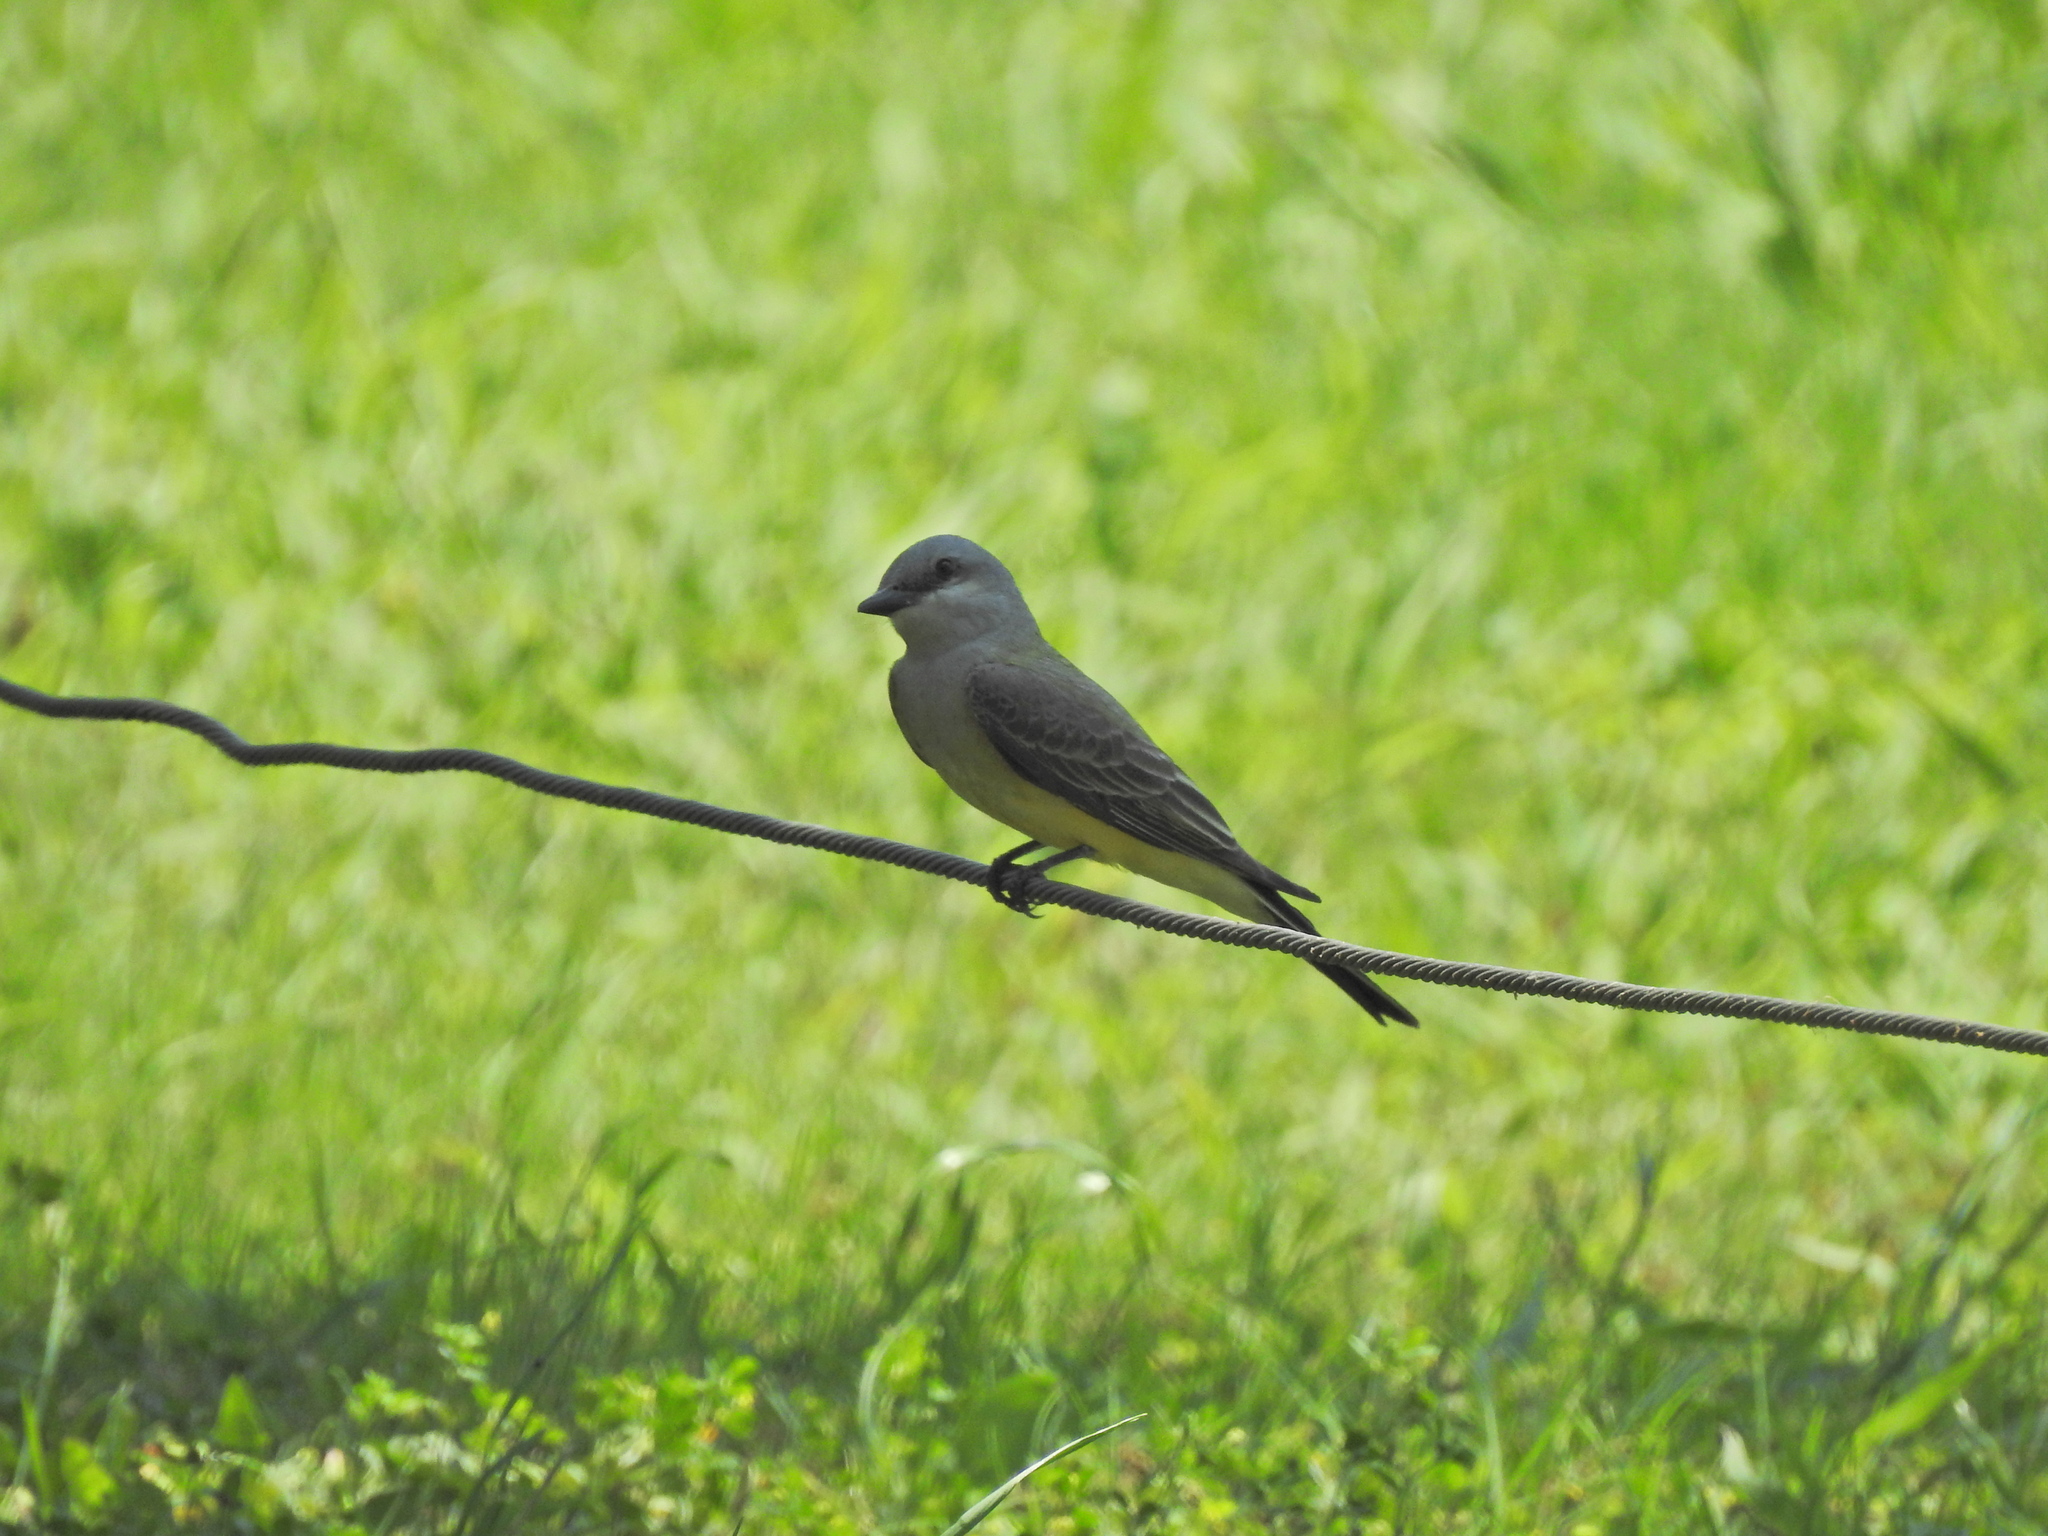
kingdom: Animalia
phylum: Chordata
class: Aves
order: Passeriformes
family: Tyrannidae
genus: Tyrannus
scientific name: Tyrannus verticalis
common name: Western kingbird
